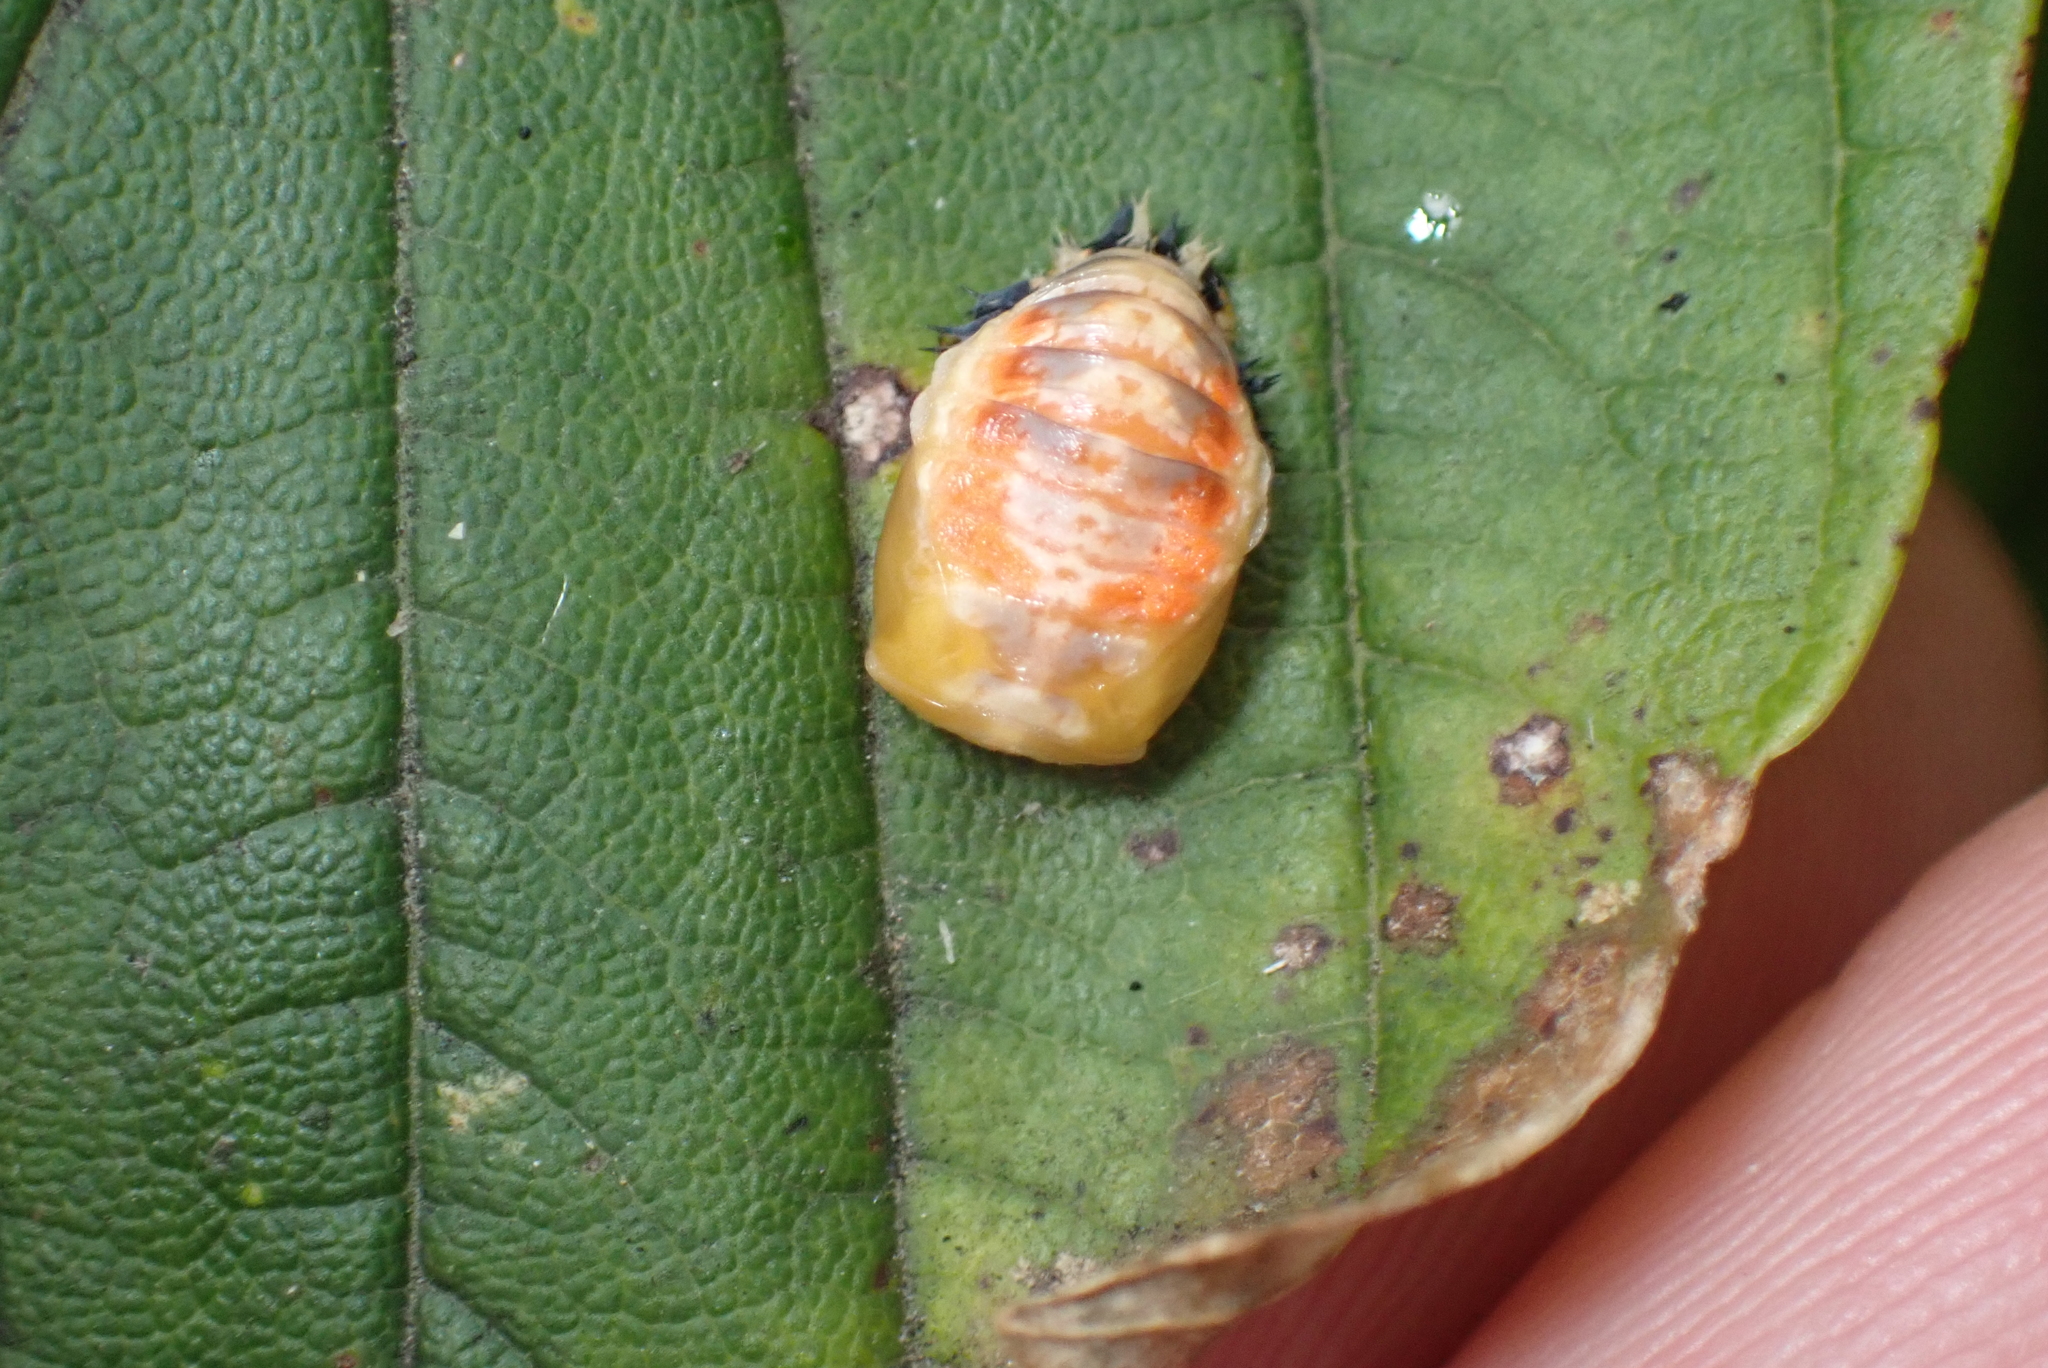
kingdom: Animalia
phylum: Arthropoda
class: Insecta
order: Coleoptera
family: Coccinellidae
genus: Harmonia
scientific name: Harmonia axyridis
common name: Harlequin ladybird
